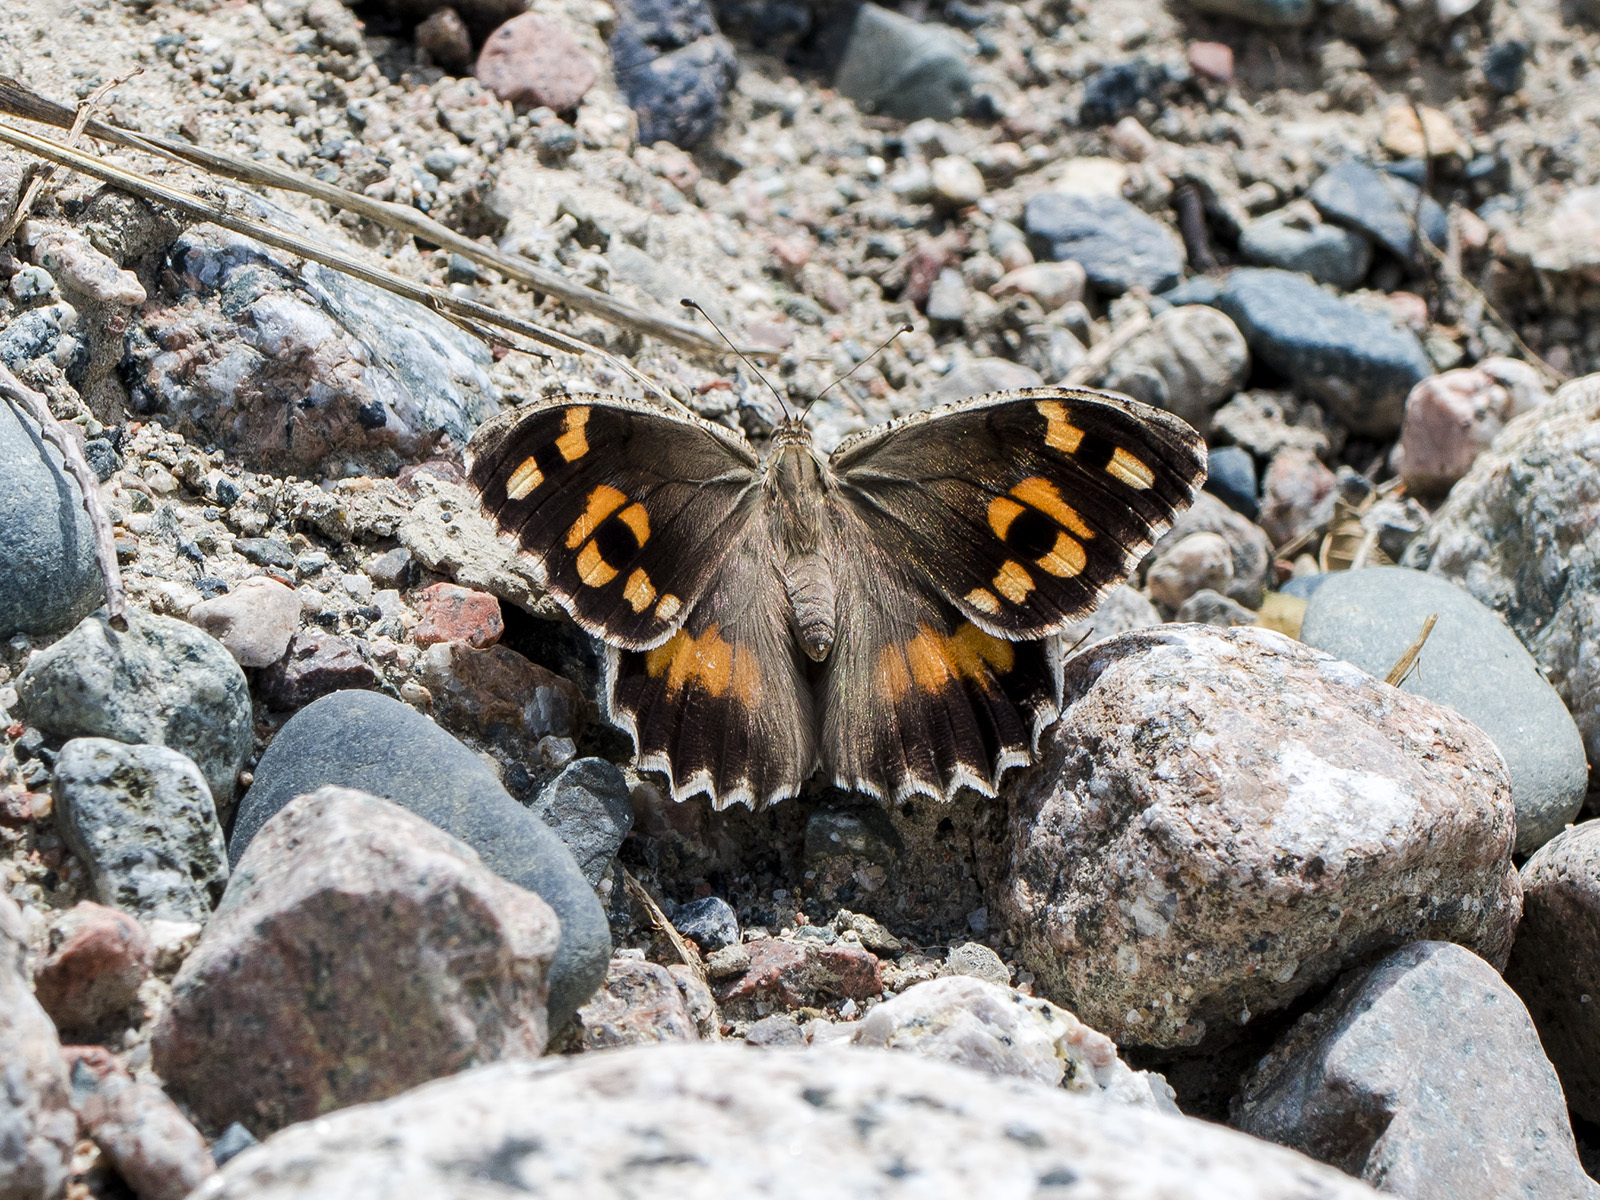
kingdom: Animalia
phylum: Arthropoda
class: Insecta
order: Lepidoptera
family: Nymphalidae
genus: Satyrus
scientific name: Satyrus Chazara enervata
